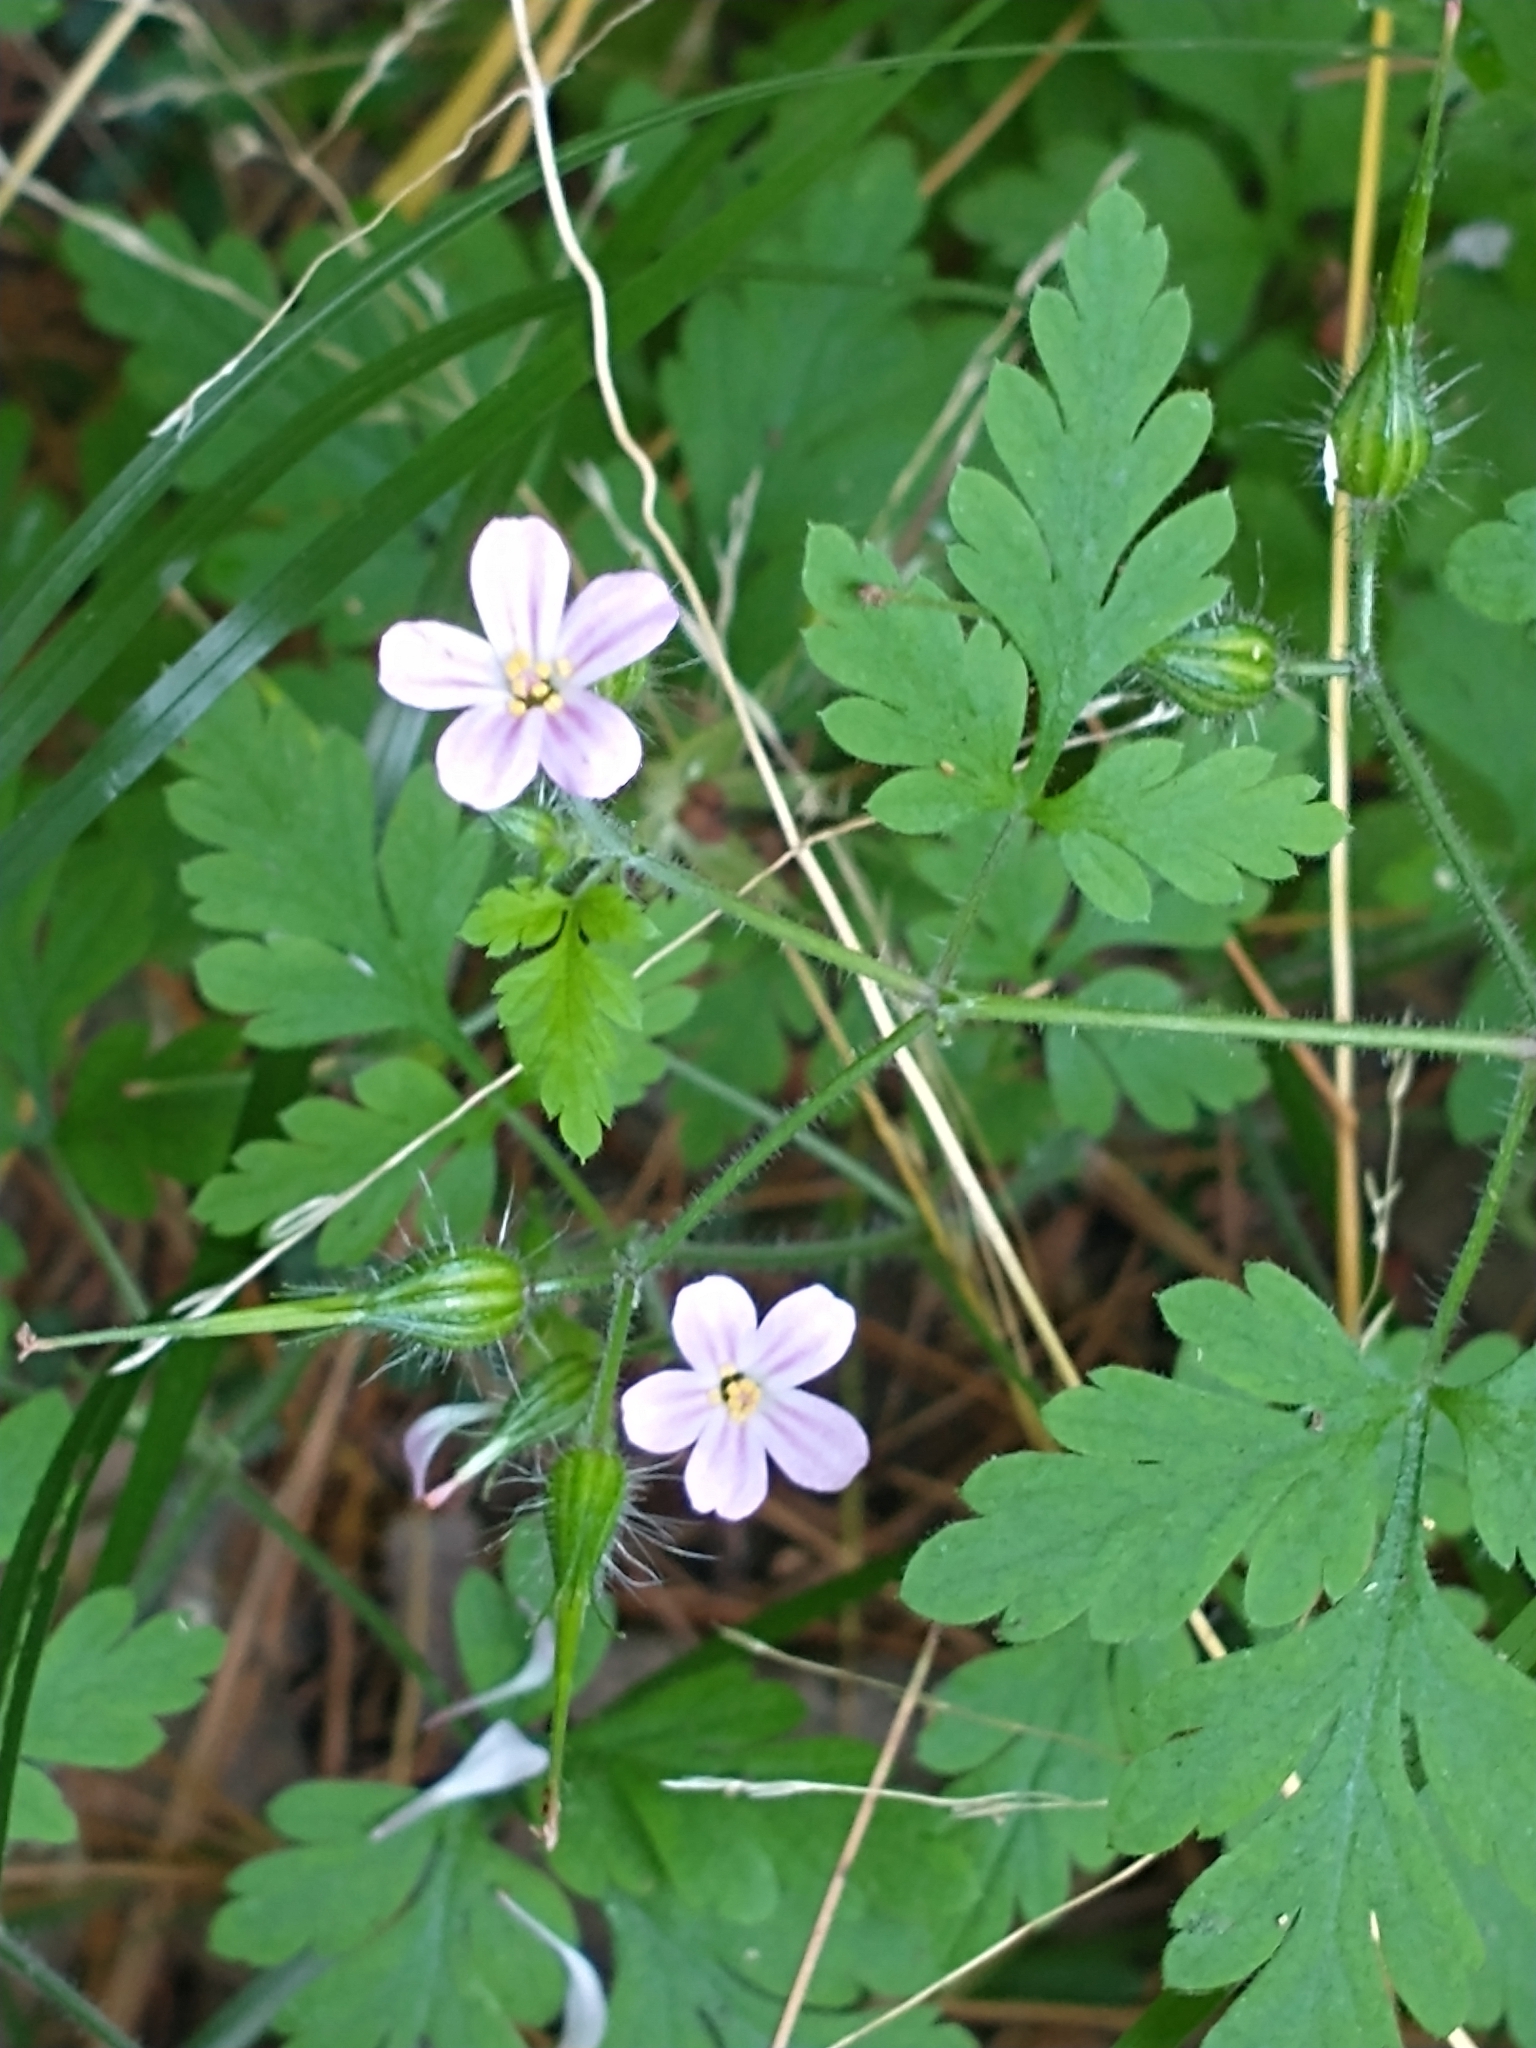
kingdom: Plantae
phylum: Tracheophyta
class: Magnoliopsida
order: Geraniales
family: Geraniaceae
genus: Geranium
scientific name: Geranium robertianum
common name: Herb-robert
